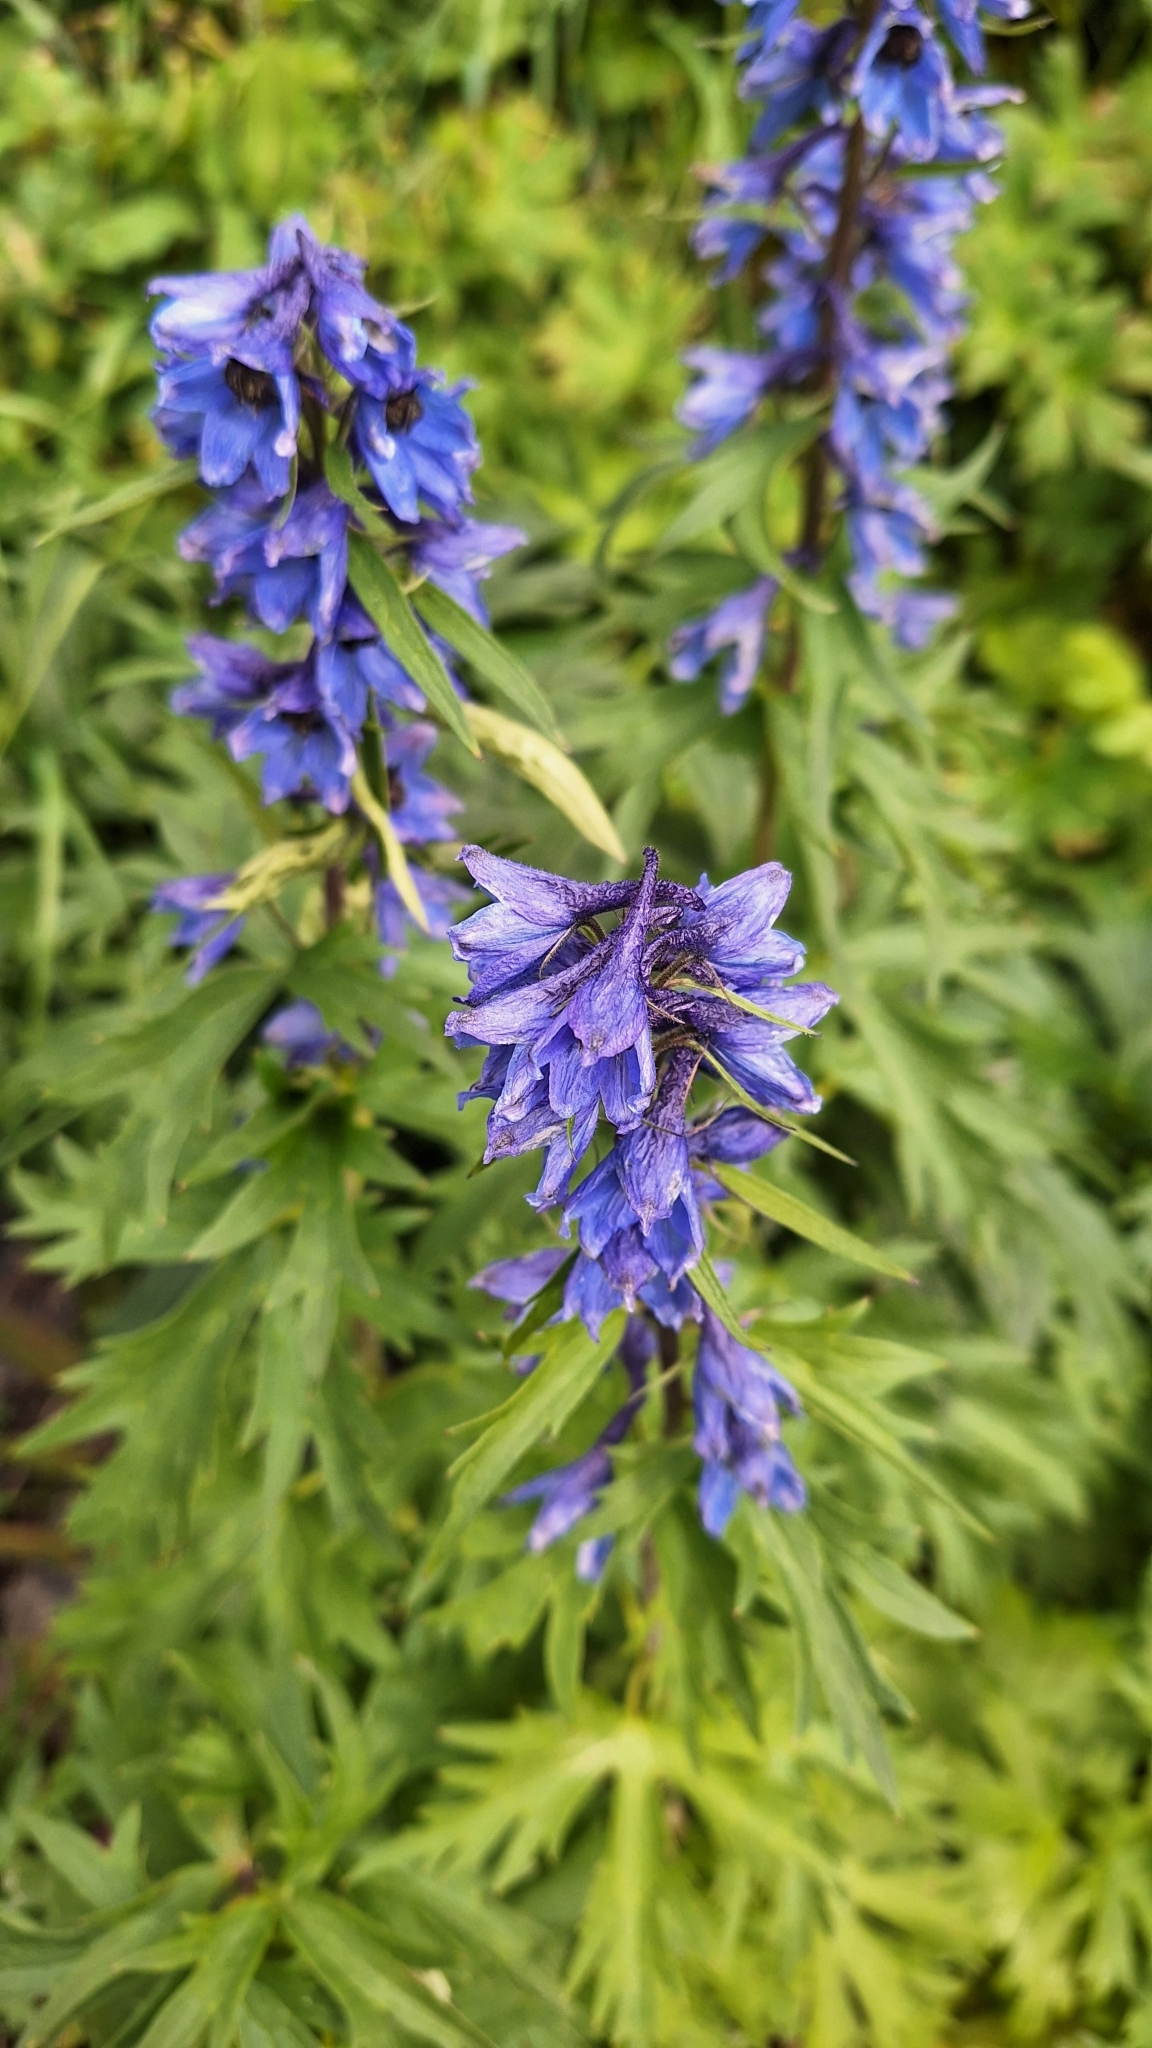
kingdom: Plantae
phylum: Tracheophyta
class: Magnoliopsida
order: Ranunculales
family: Ranunculaceae
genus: Delphinium
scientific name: Delphinium elatum
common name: Candle larkspur
